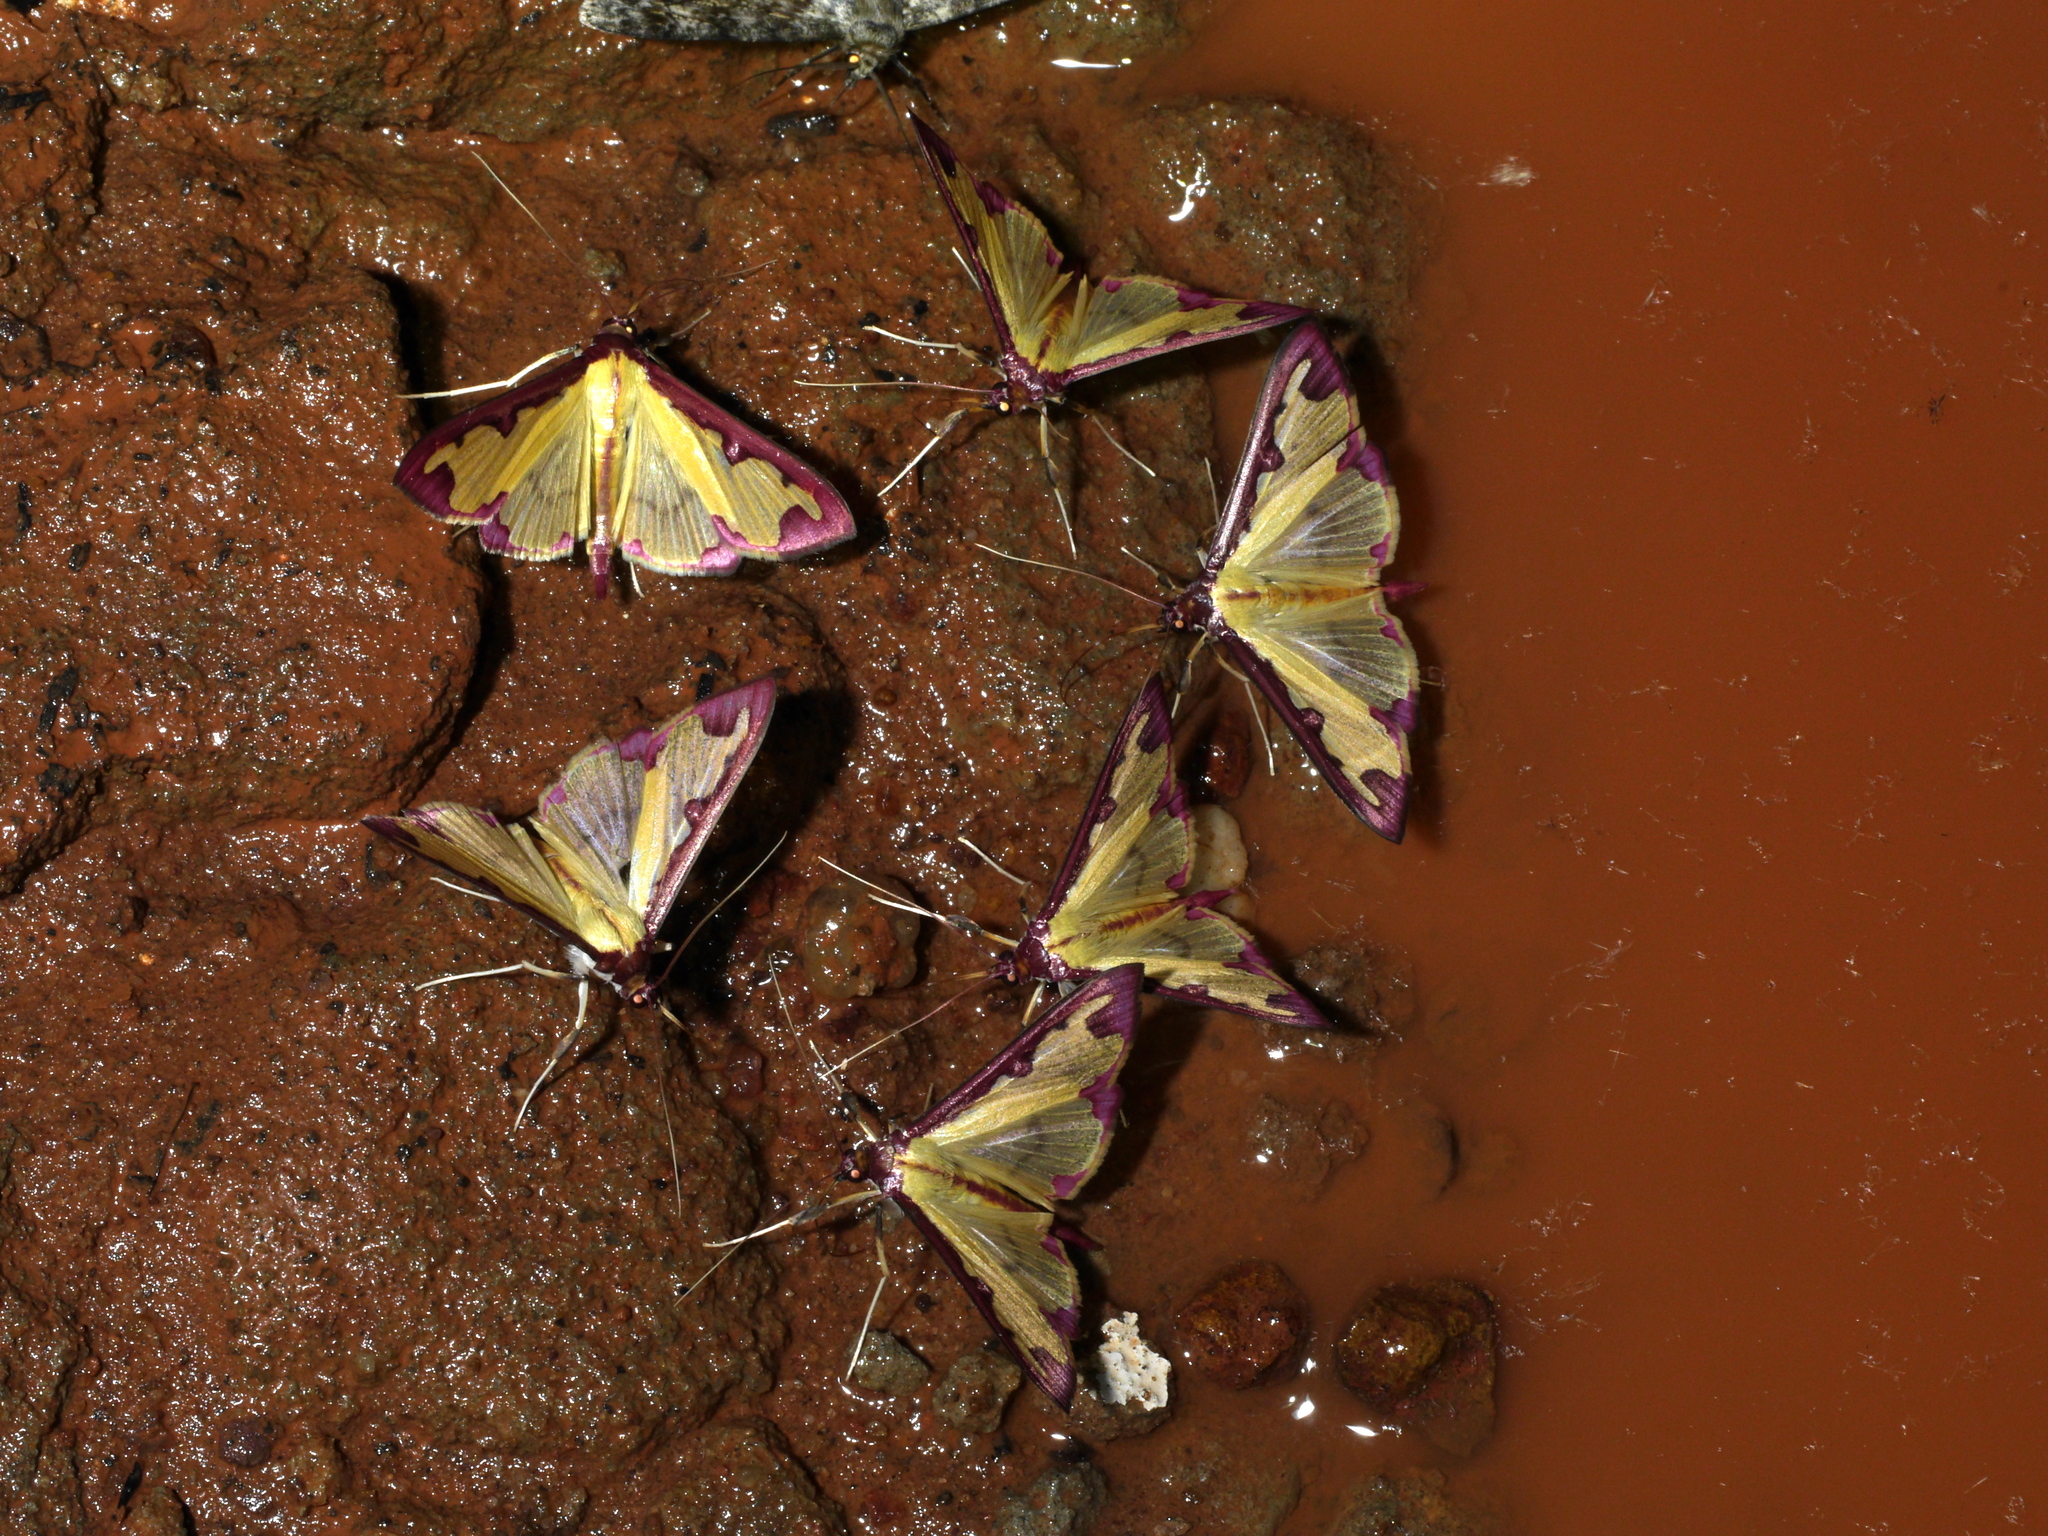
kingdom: Animalia
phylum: Arthropoda
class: Insecta
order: Lepidoptera
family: Crambidae
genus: Cadarena
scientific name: Cadarena pudoraria
